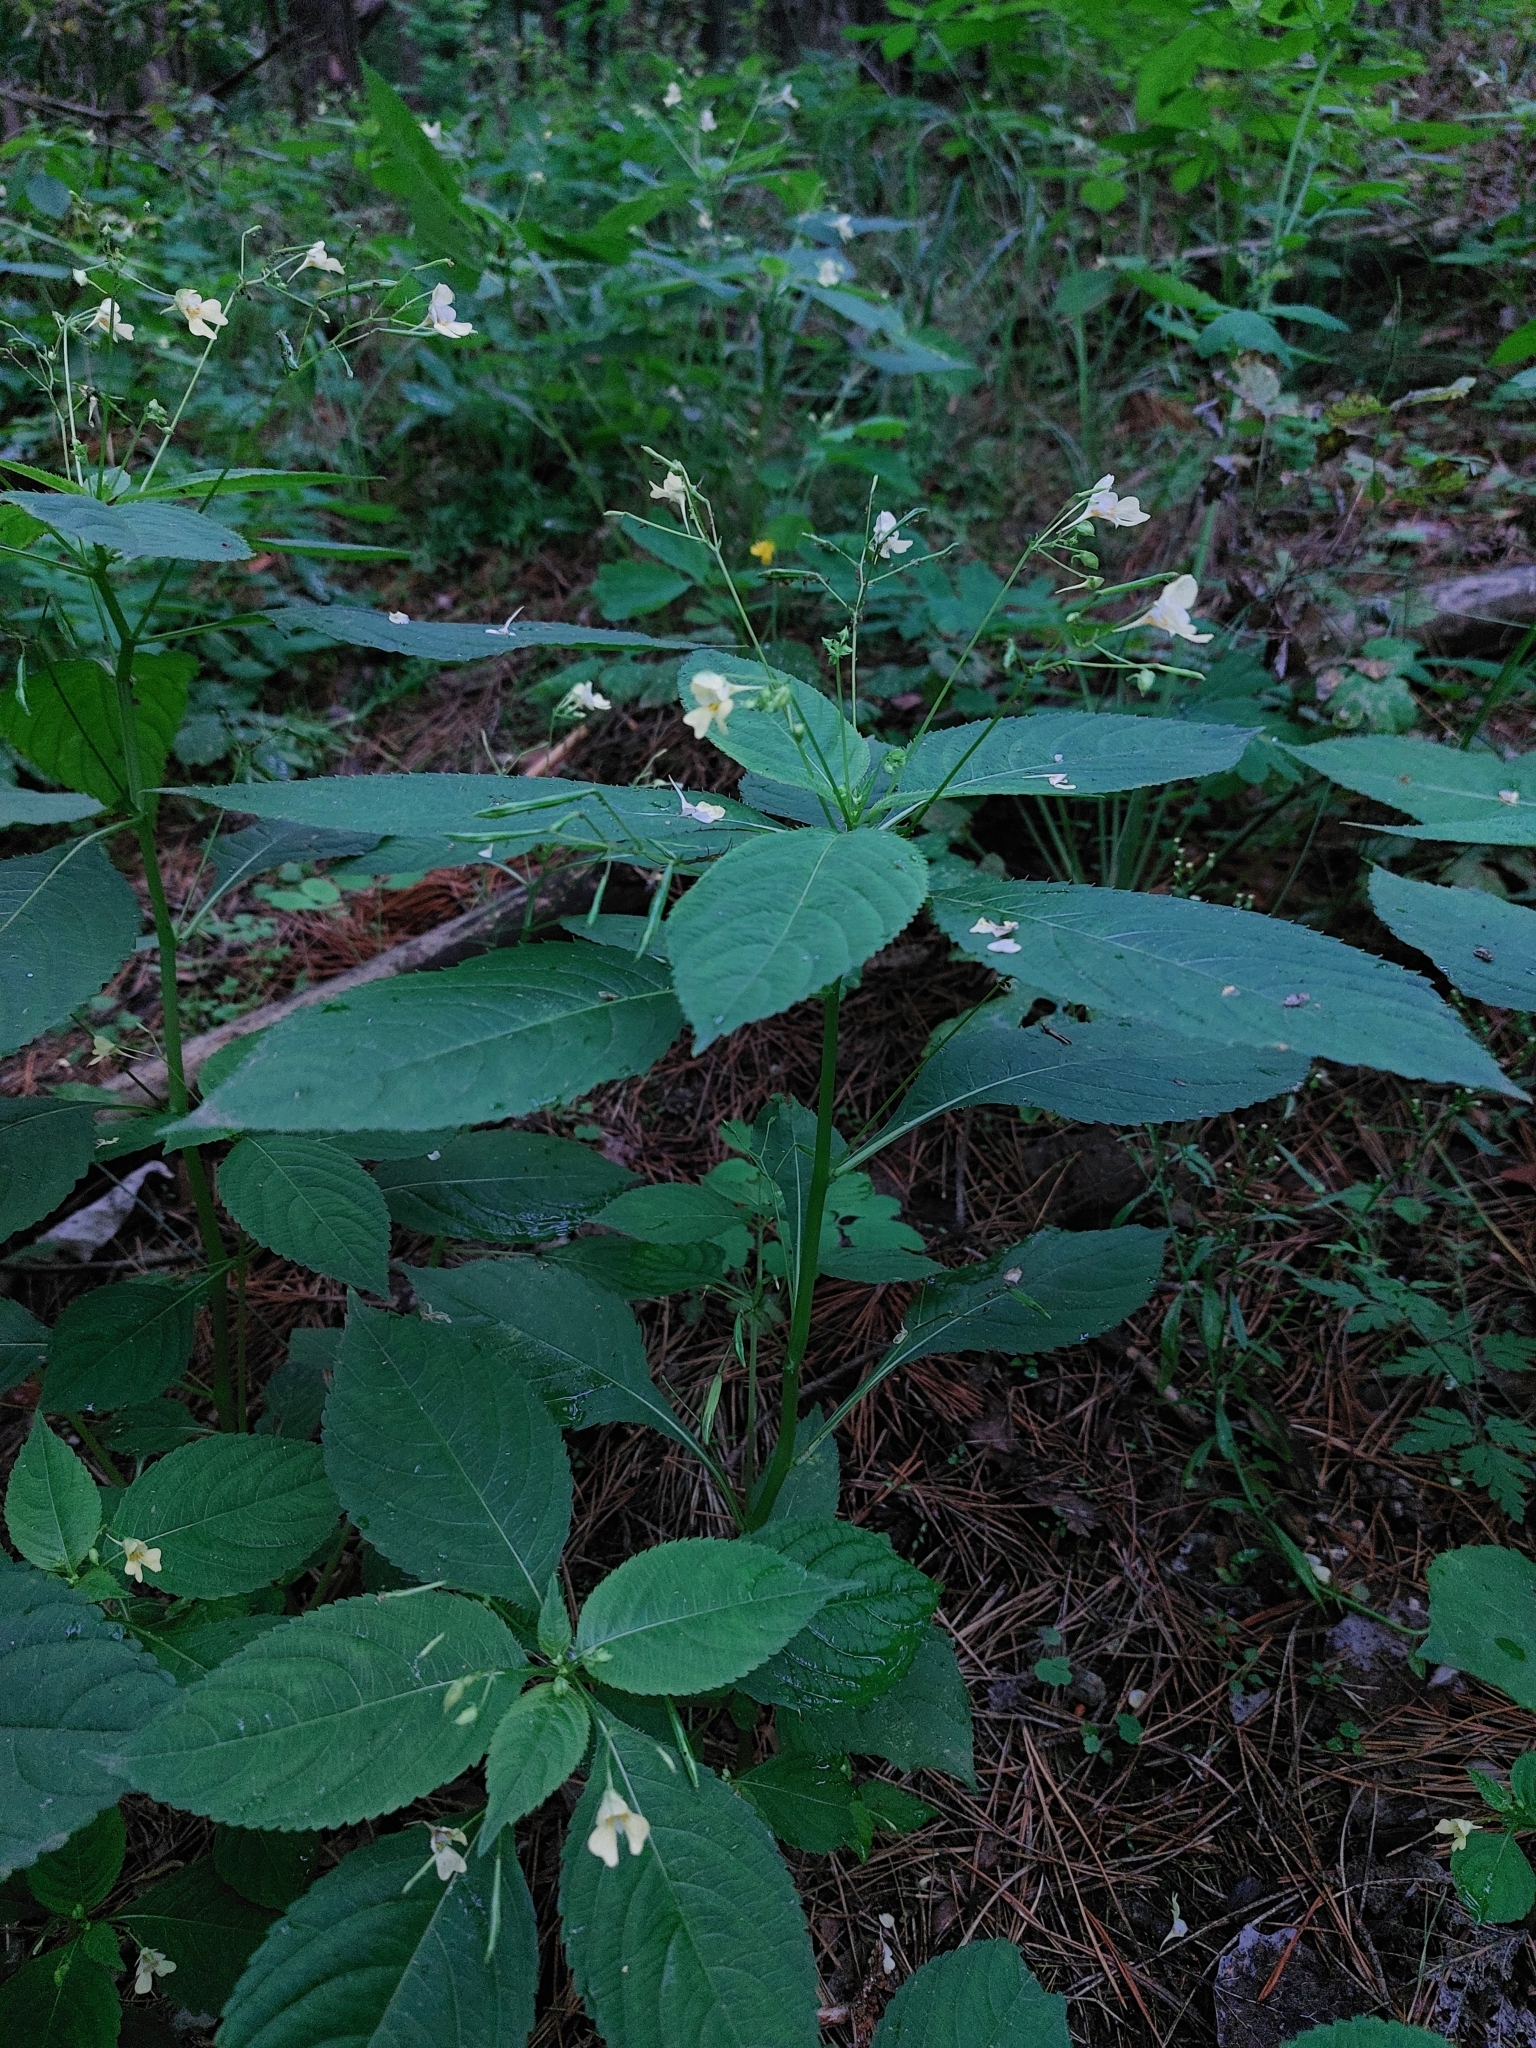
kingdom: Plantae
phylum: Tracheophyta
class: Magnoliopsida
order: Ericales
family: Balsaminaceae
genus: Impatiens
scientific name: Impatiens parviflora
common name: Small balsam
